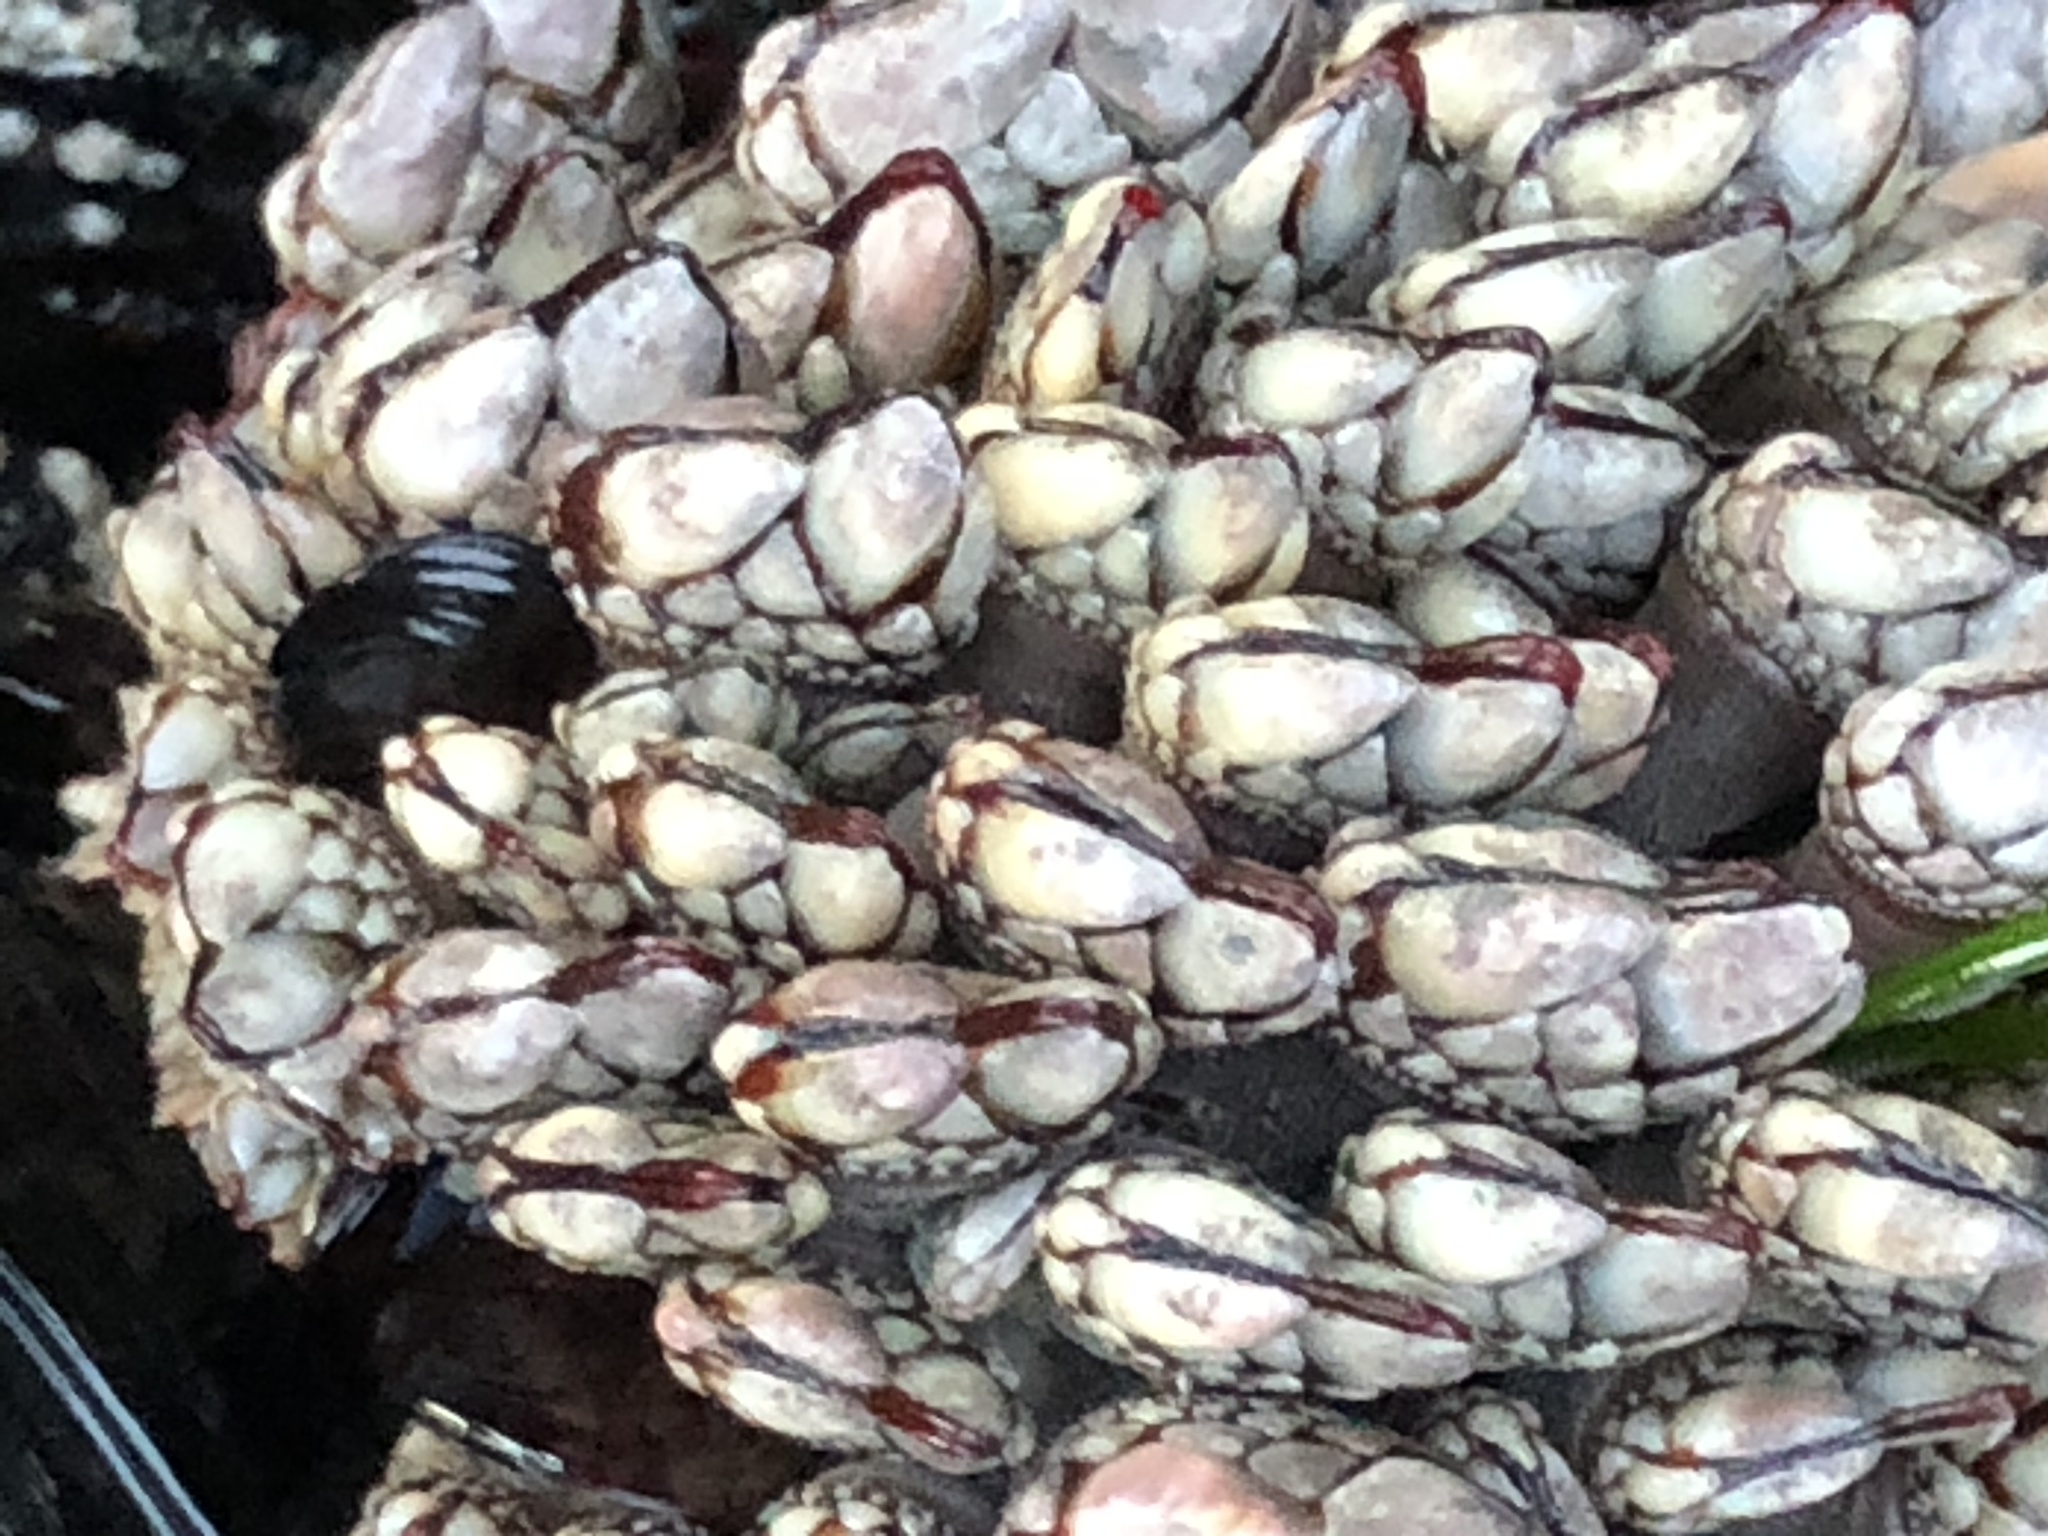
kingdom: Animalia
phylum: Arthropoda
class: Maxillopoda
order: Pedunculata
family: Pollicipedidae
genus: Pollicipes
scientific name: Pollicipes polymerus
